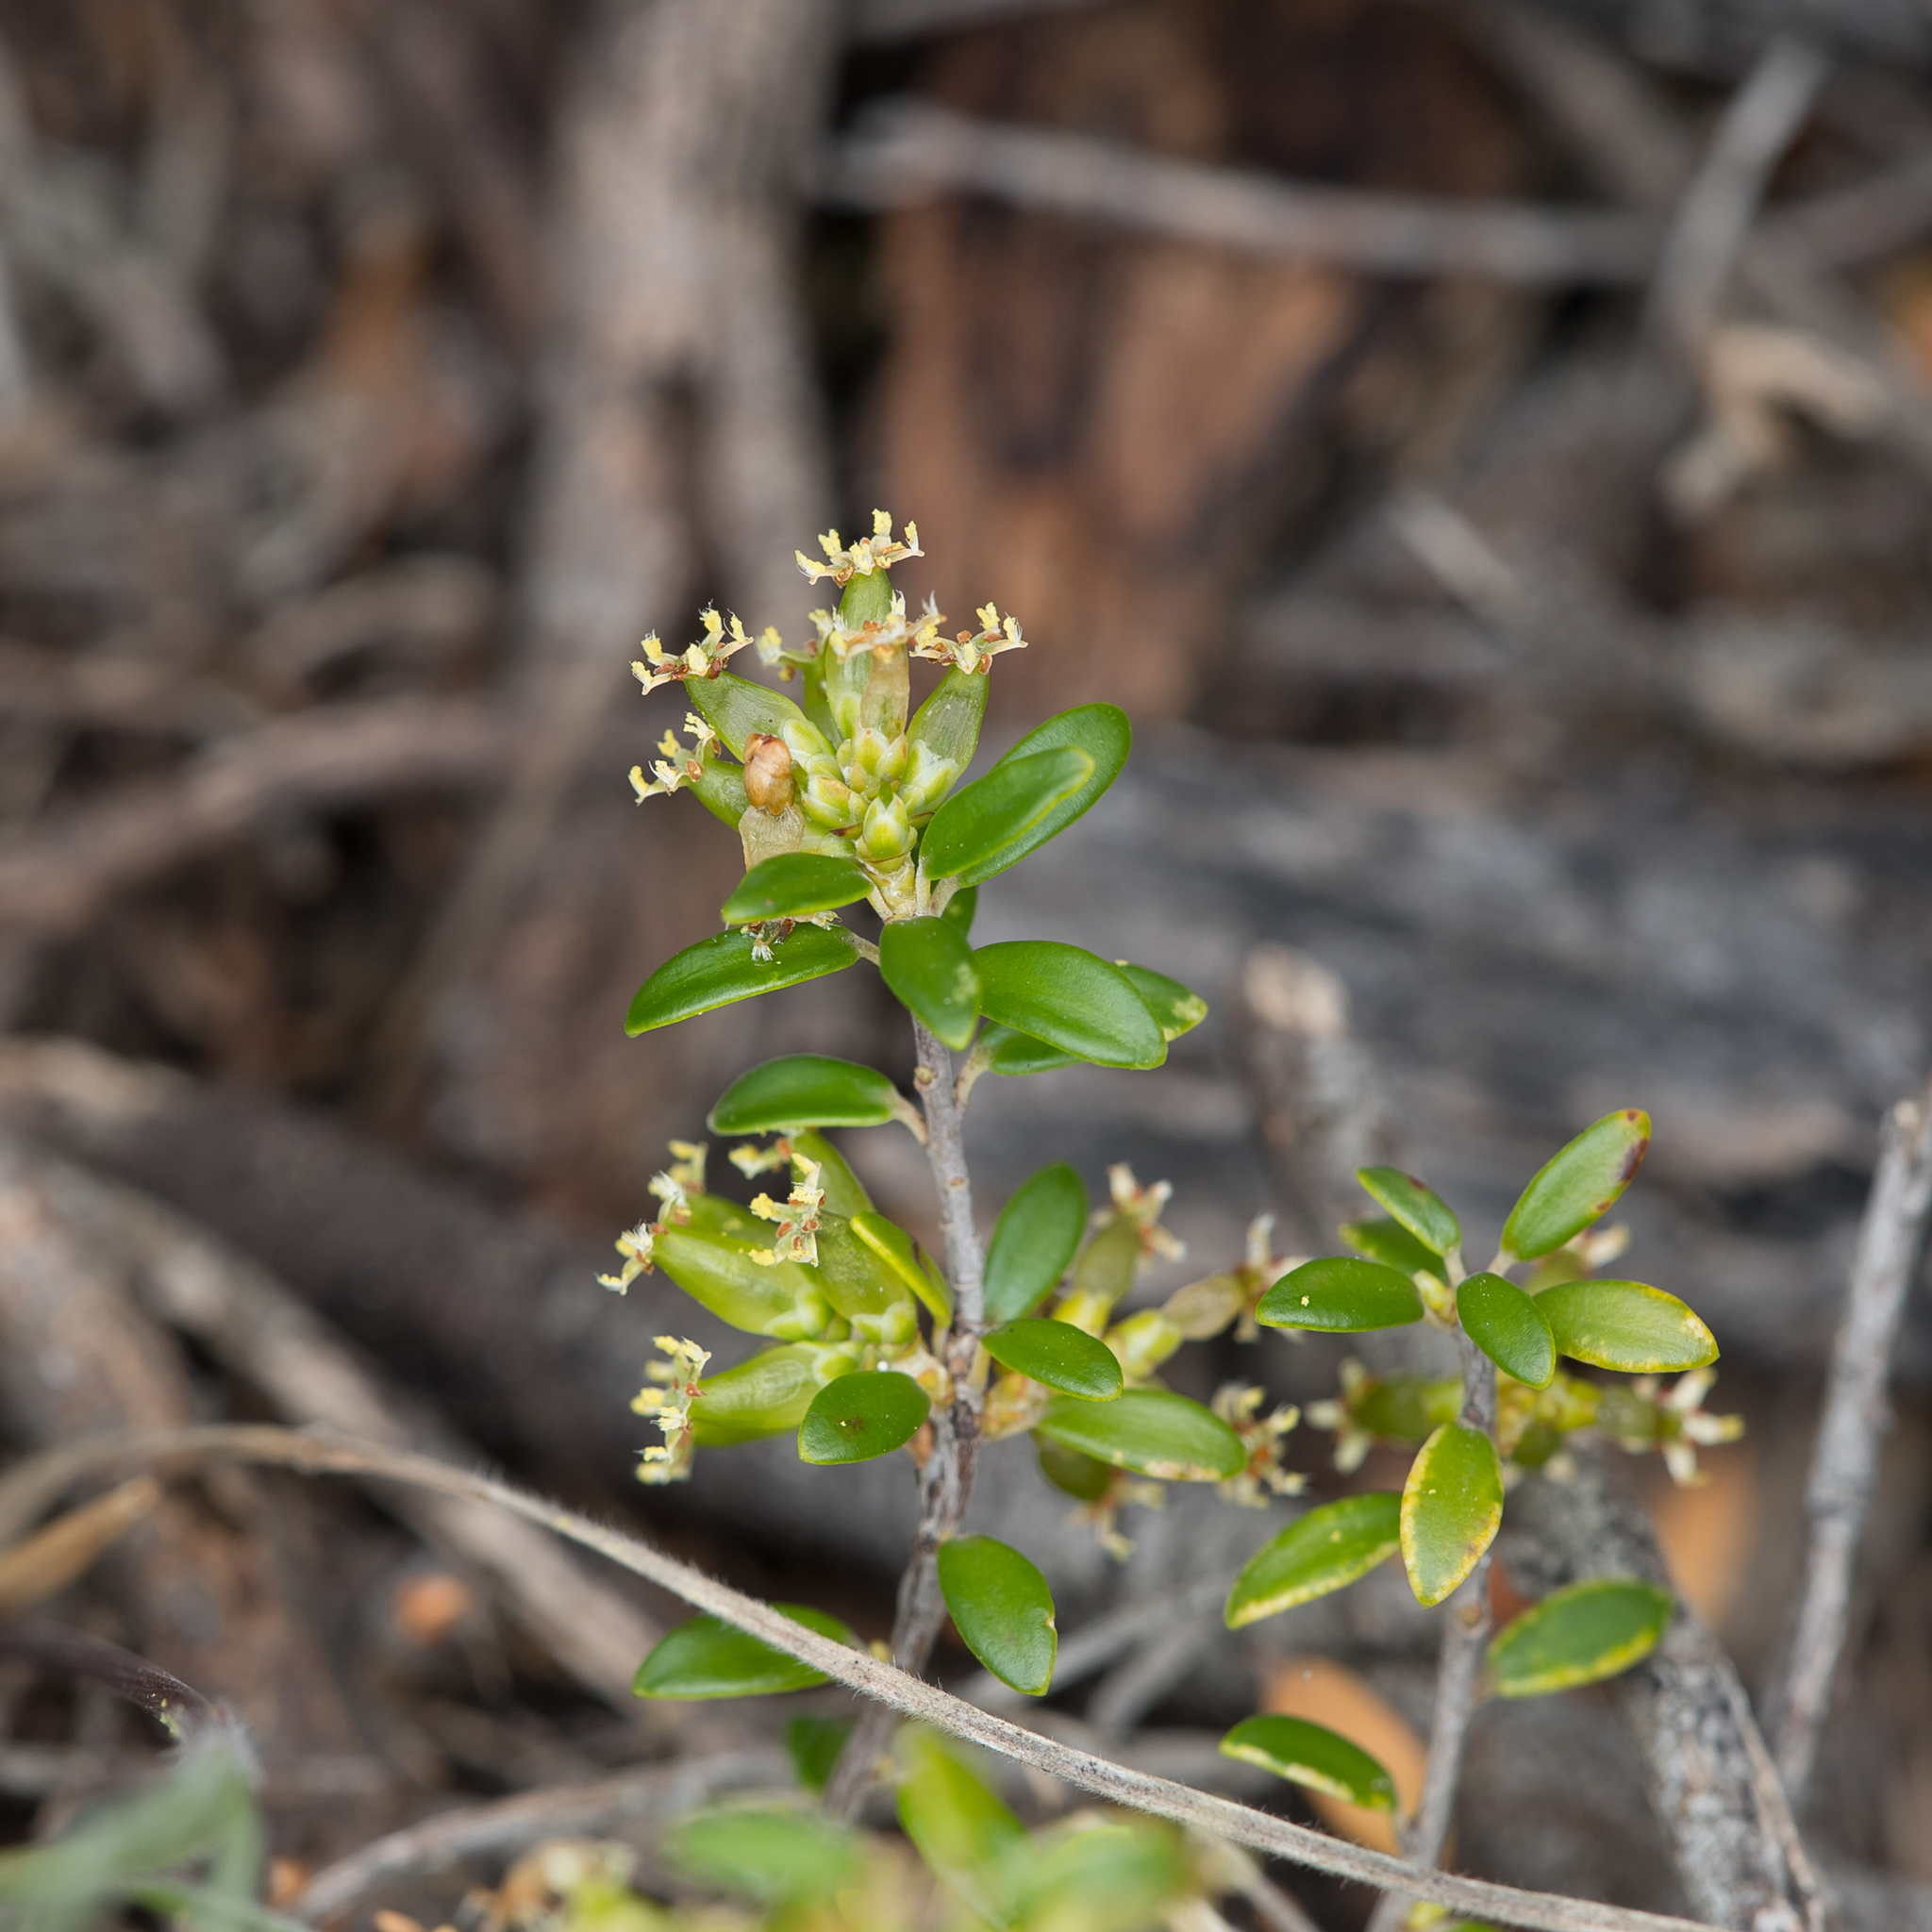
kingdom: Plantae
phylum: Tracheophyta
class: Magnoliopsida
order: Ericales
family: Ericaceae
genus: Acrotriche
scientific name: Acrotriche cordata
